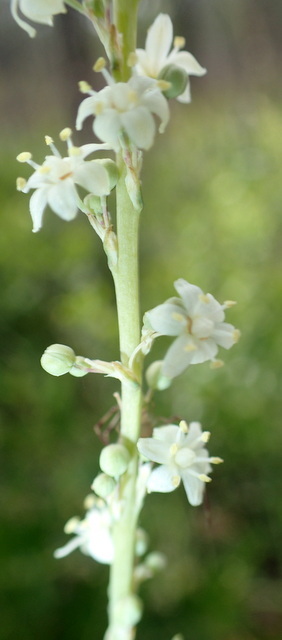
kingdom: Plantae
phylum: Tracheophyta
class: Liliopsida
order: Asparagales
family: Asparagaceae
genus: Nolina
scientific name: Nolina atopocarpa
